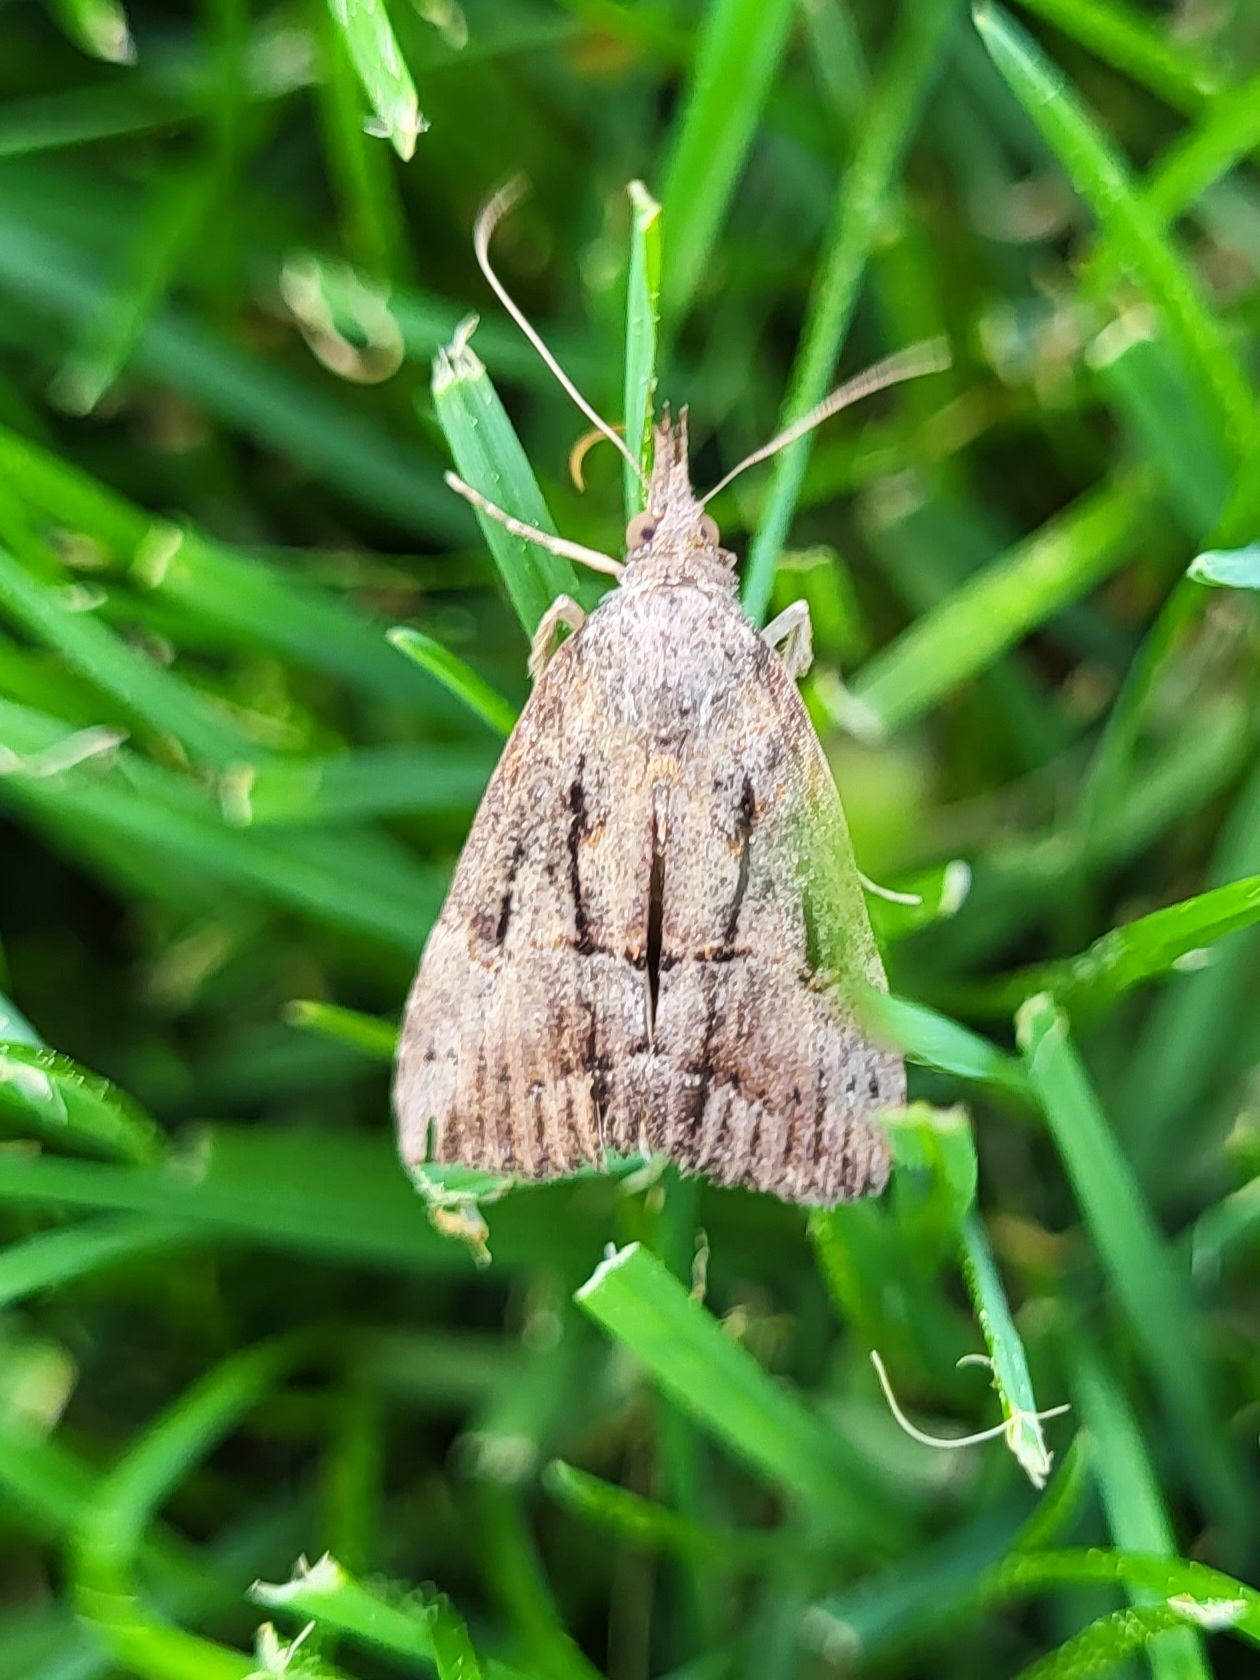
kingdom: Animalia
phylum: Arthropoda
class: Insecta
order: Lepidoptera
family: Erebidae
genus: Hypena
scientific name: Hypena scabra
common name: Green cloverworm
